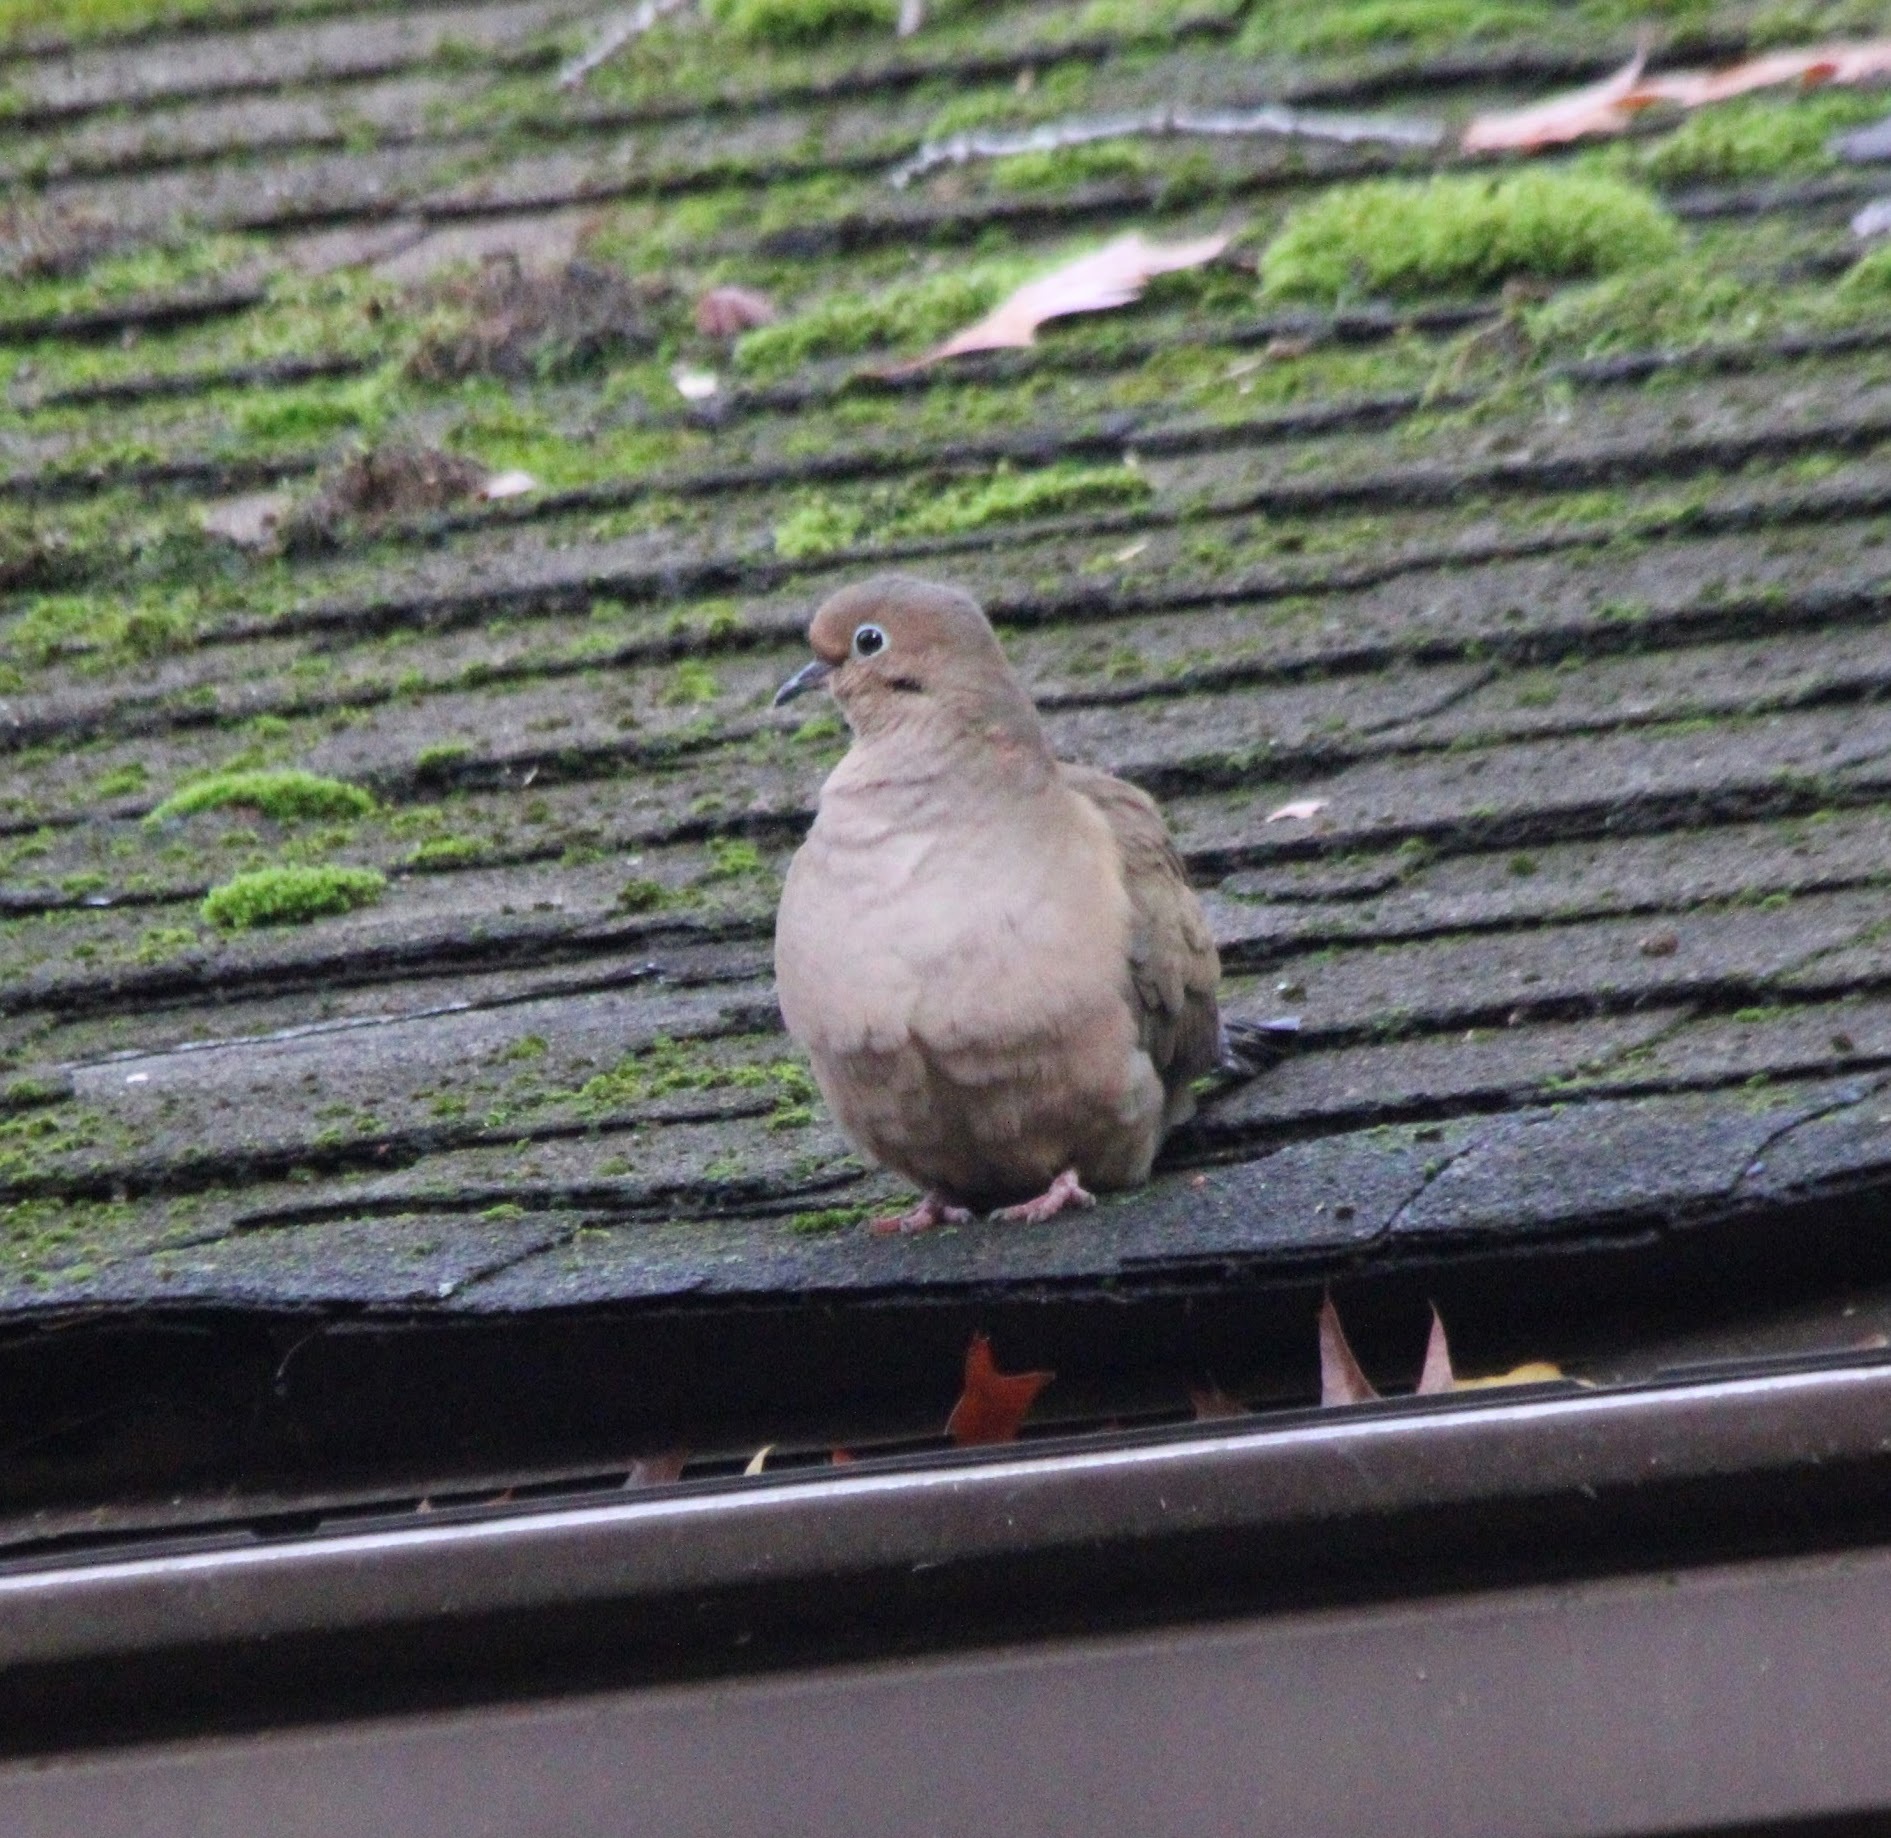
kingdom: Animalia
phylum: Chordata
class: Aves
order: Columbiformes
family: Columbidae
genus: Zenaida
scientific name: Zenaida macroura
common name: Mourning dove
